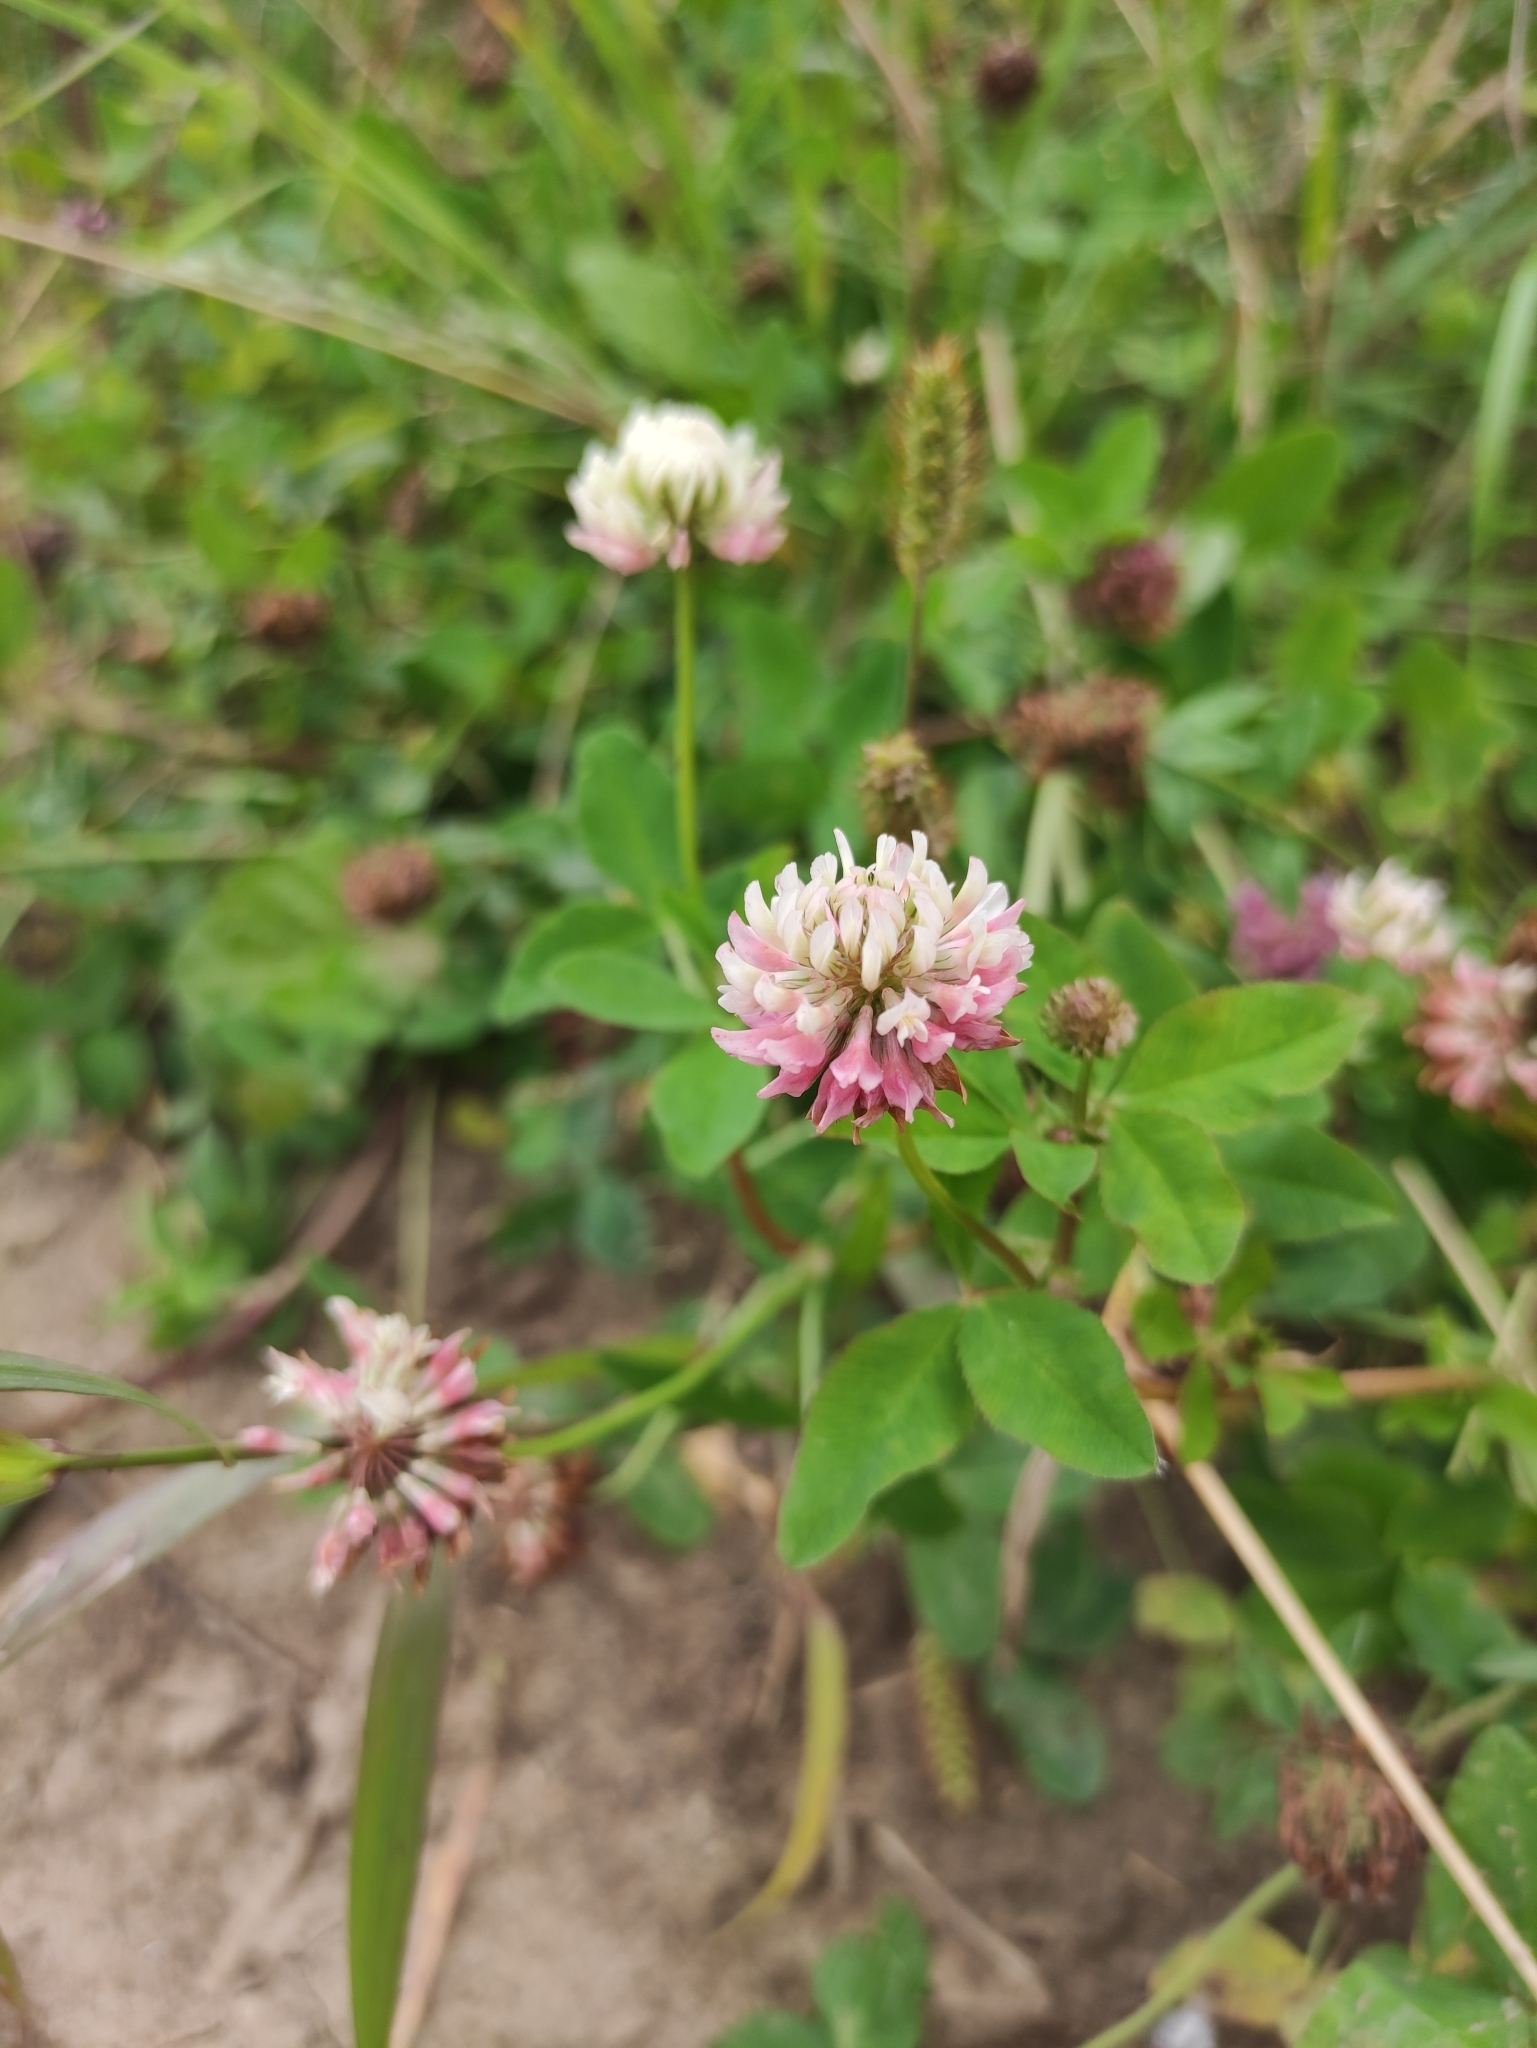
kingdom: Plantae
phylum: Tracheophyta
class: Magnoliopsida
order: Fabales
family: Fabaceae
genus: Trifolium
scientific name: Trifolium hybridum
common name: Alsike clover
